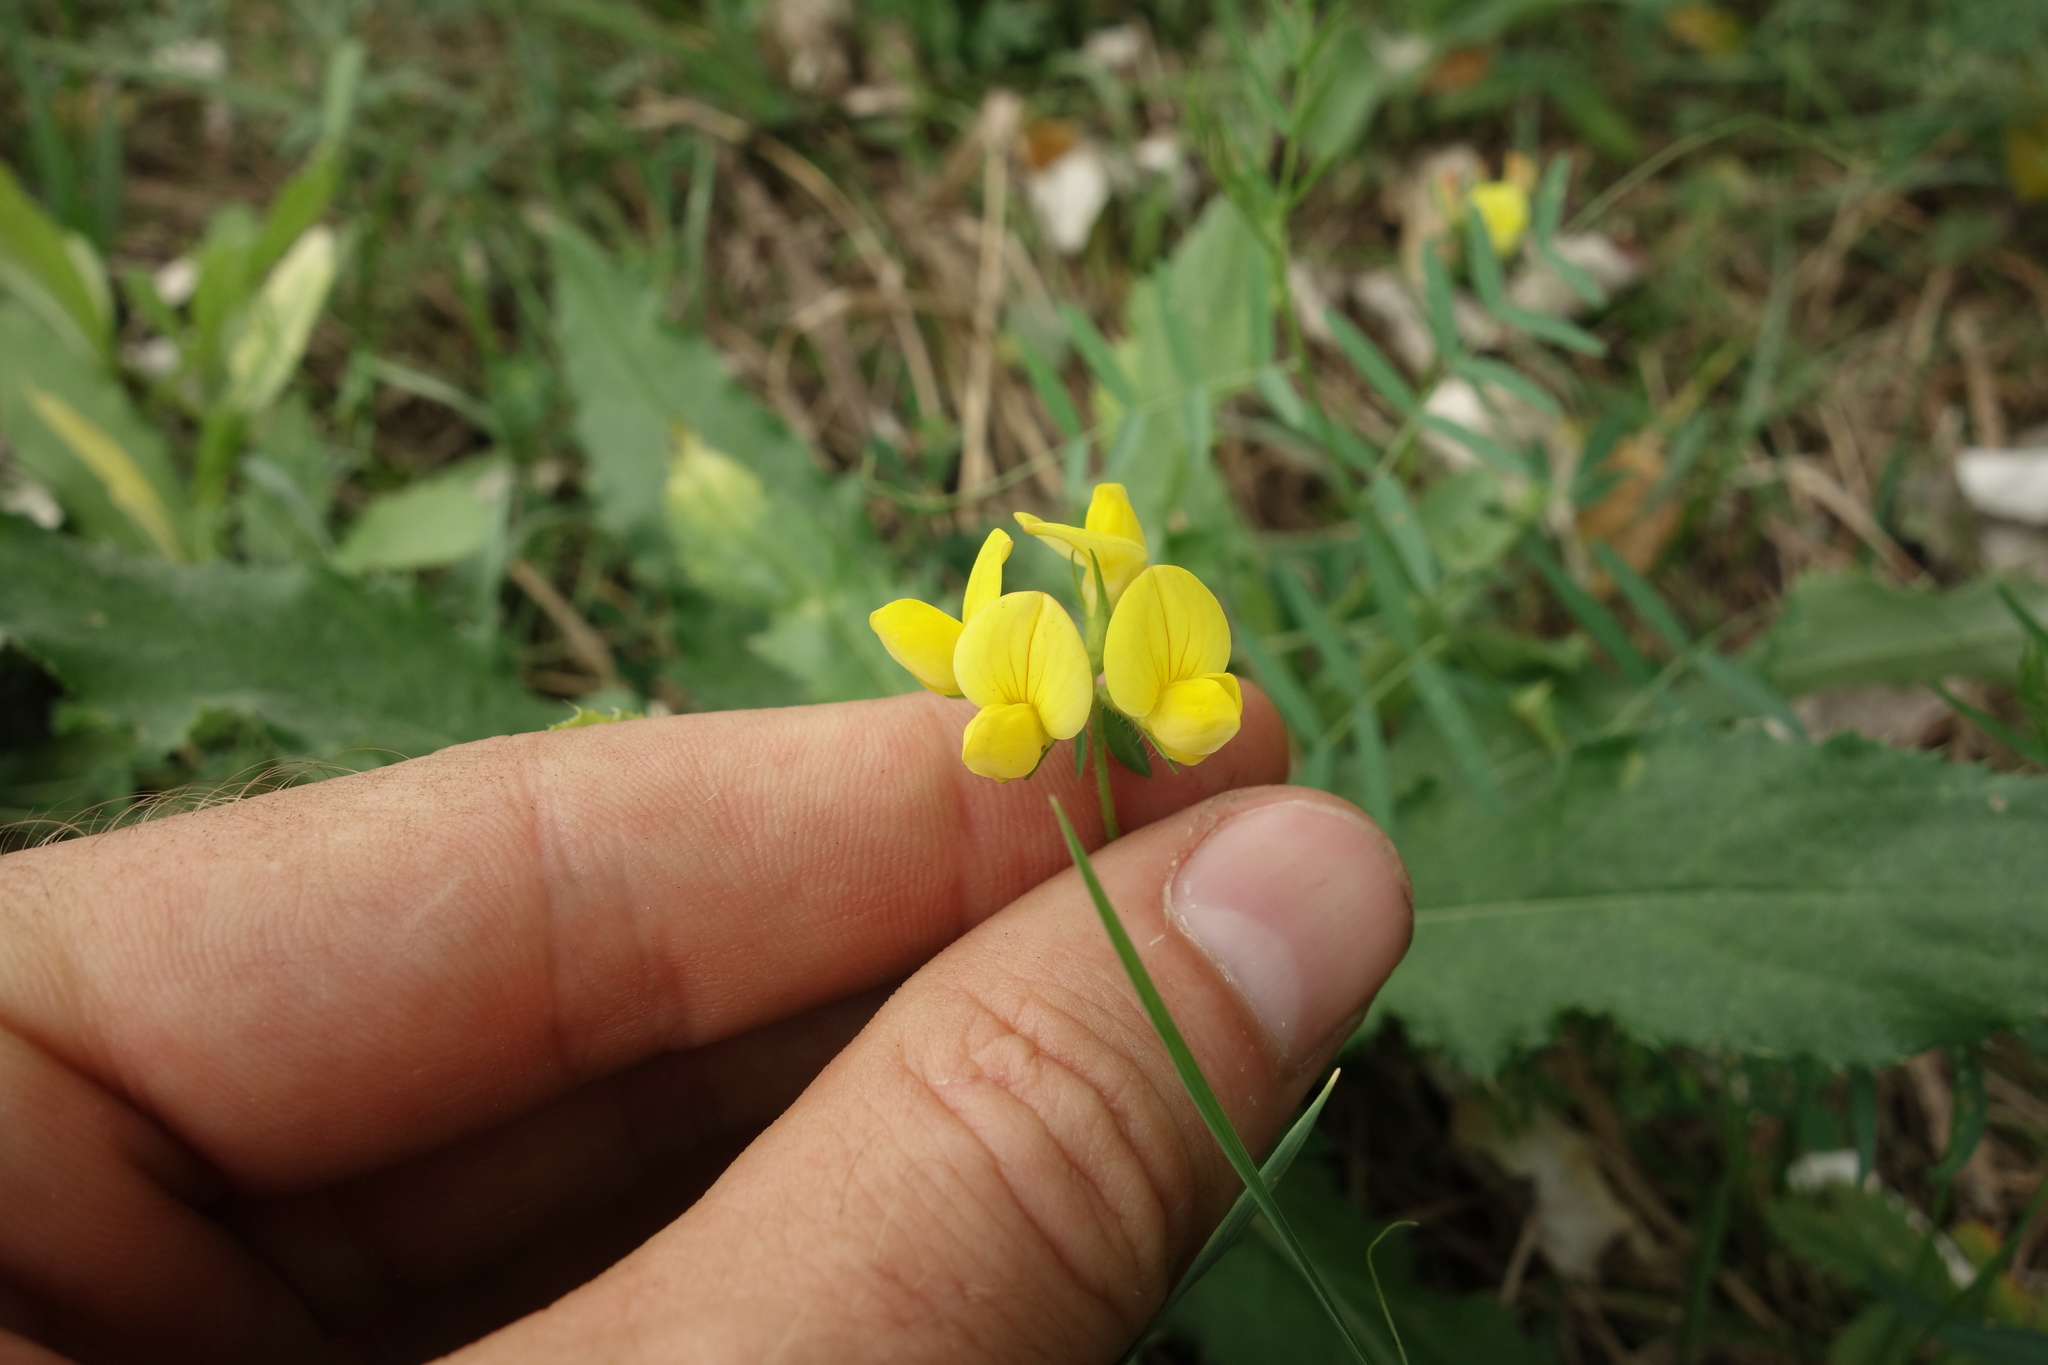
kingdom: Plantae
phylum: Tracheophyta
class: Magnoliopsida
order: Fabales
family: Fabaceae
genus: Lotus
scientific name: Lotus corniculatus
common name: Common bird's-foot-trefoil
